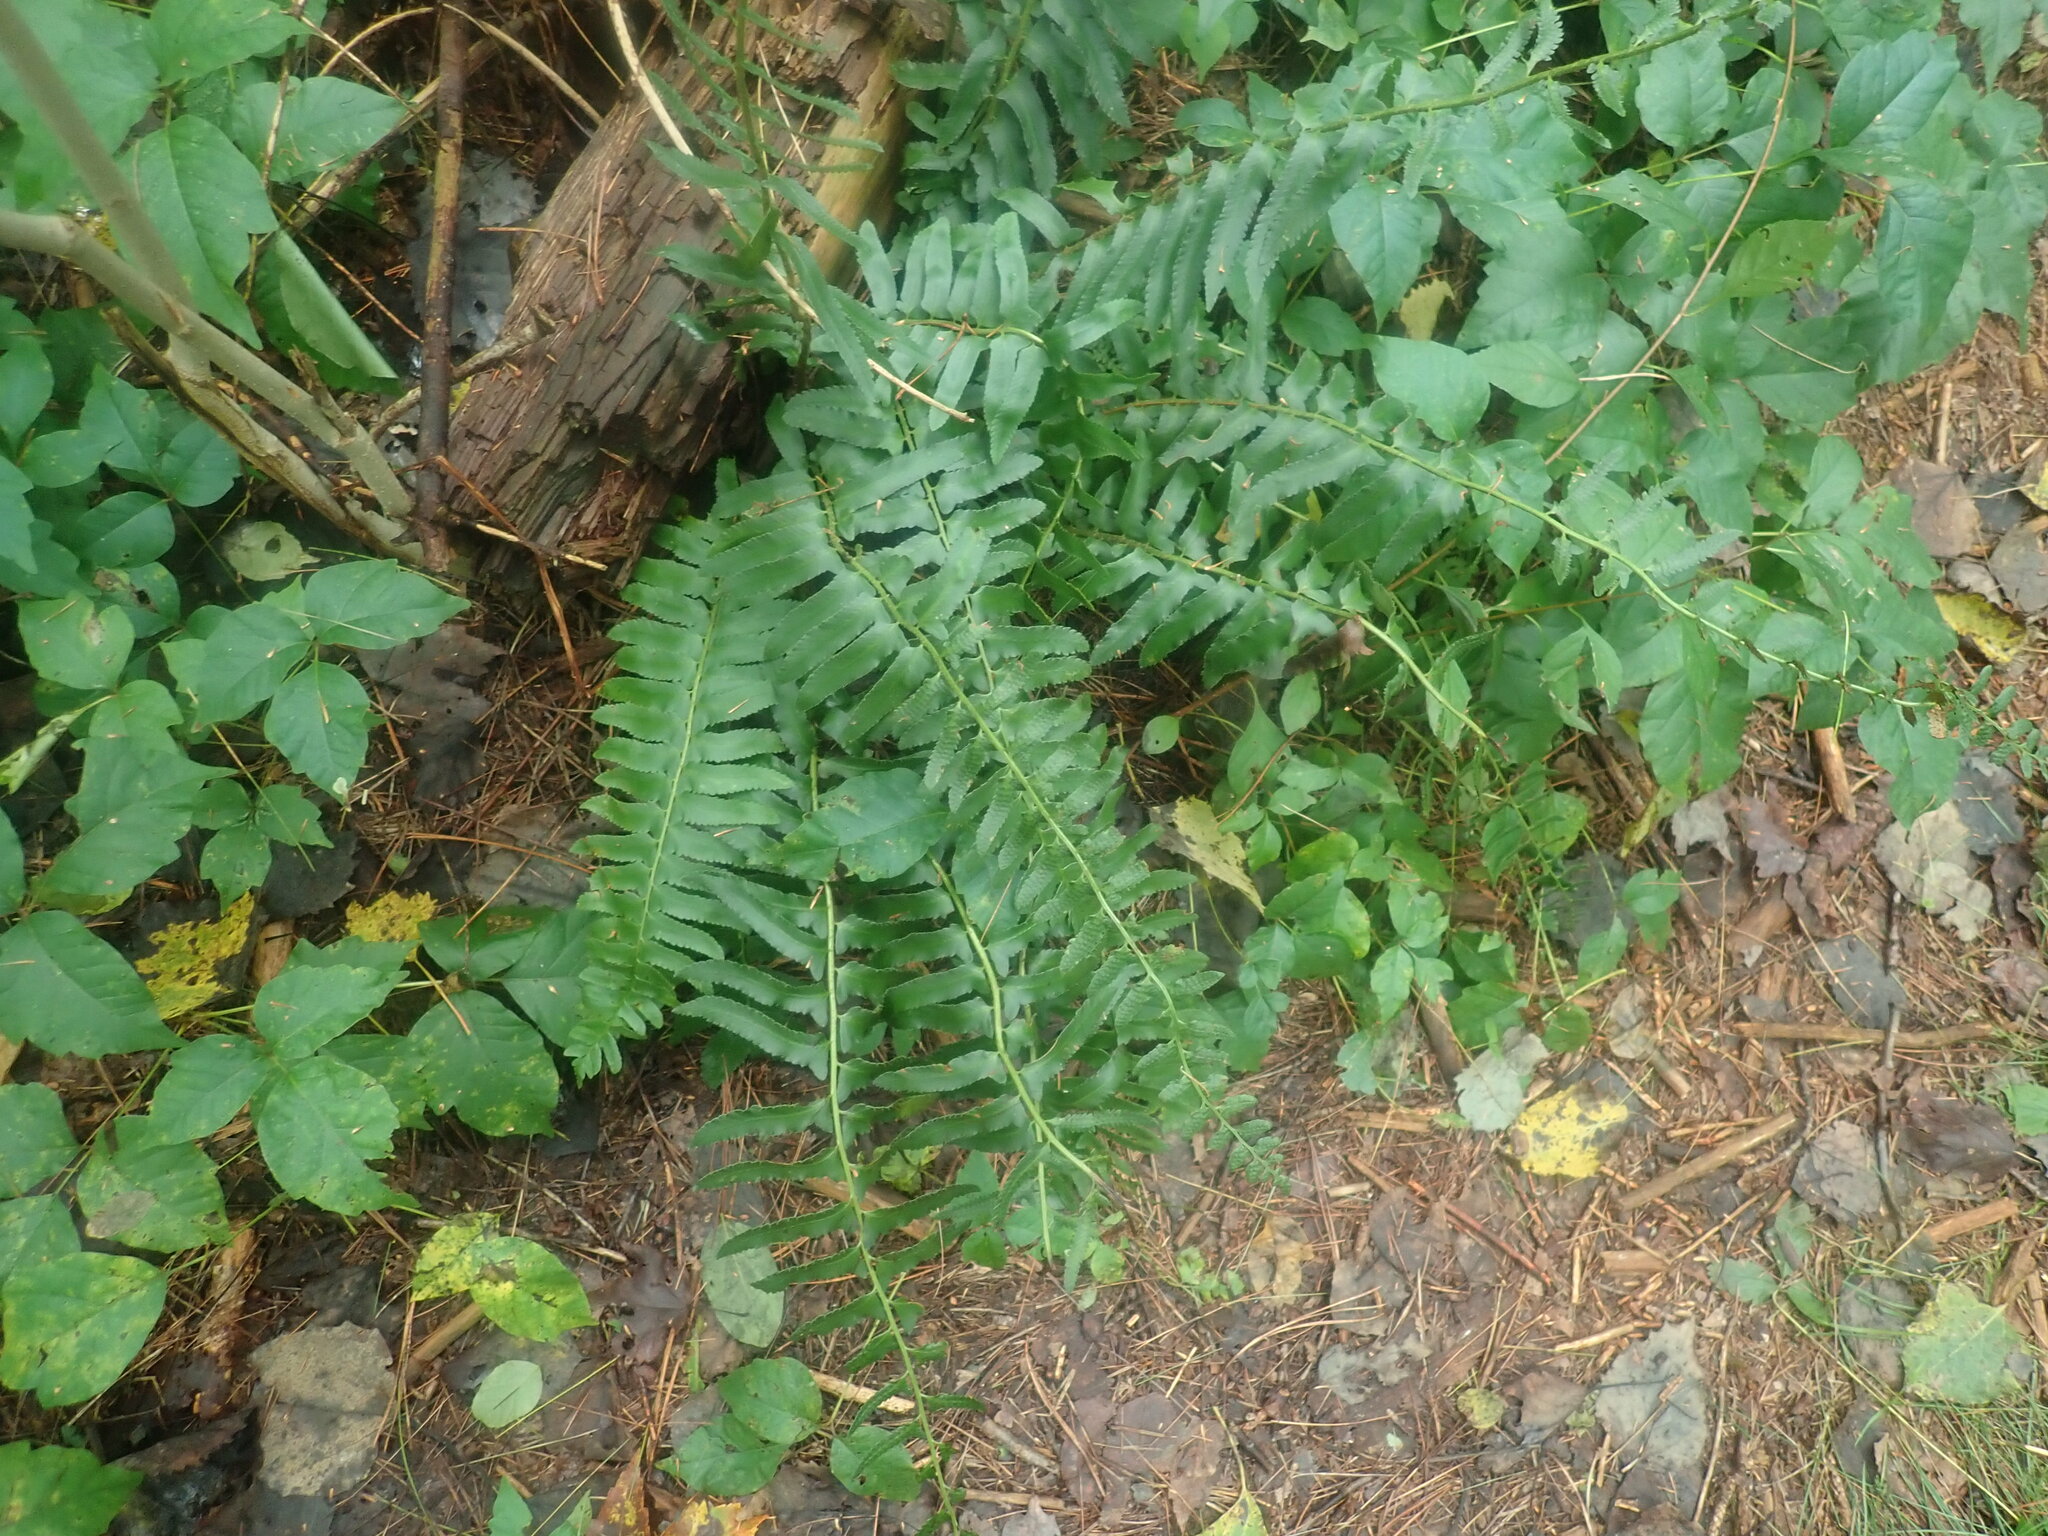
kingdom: Plantae
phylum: Tracheophyta
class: Polypodiopsida
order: Polypodiales
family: Dryopteridaceae
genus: Polystichum
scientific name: Polystichum acrostichoides
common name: Christmas fern
